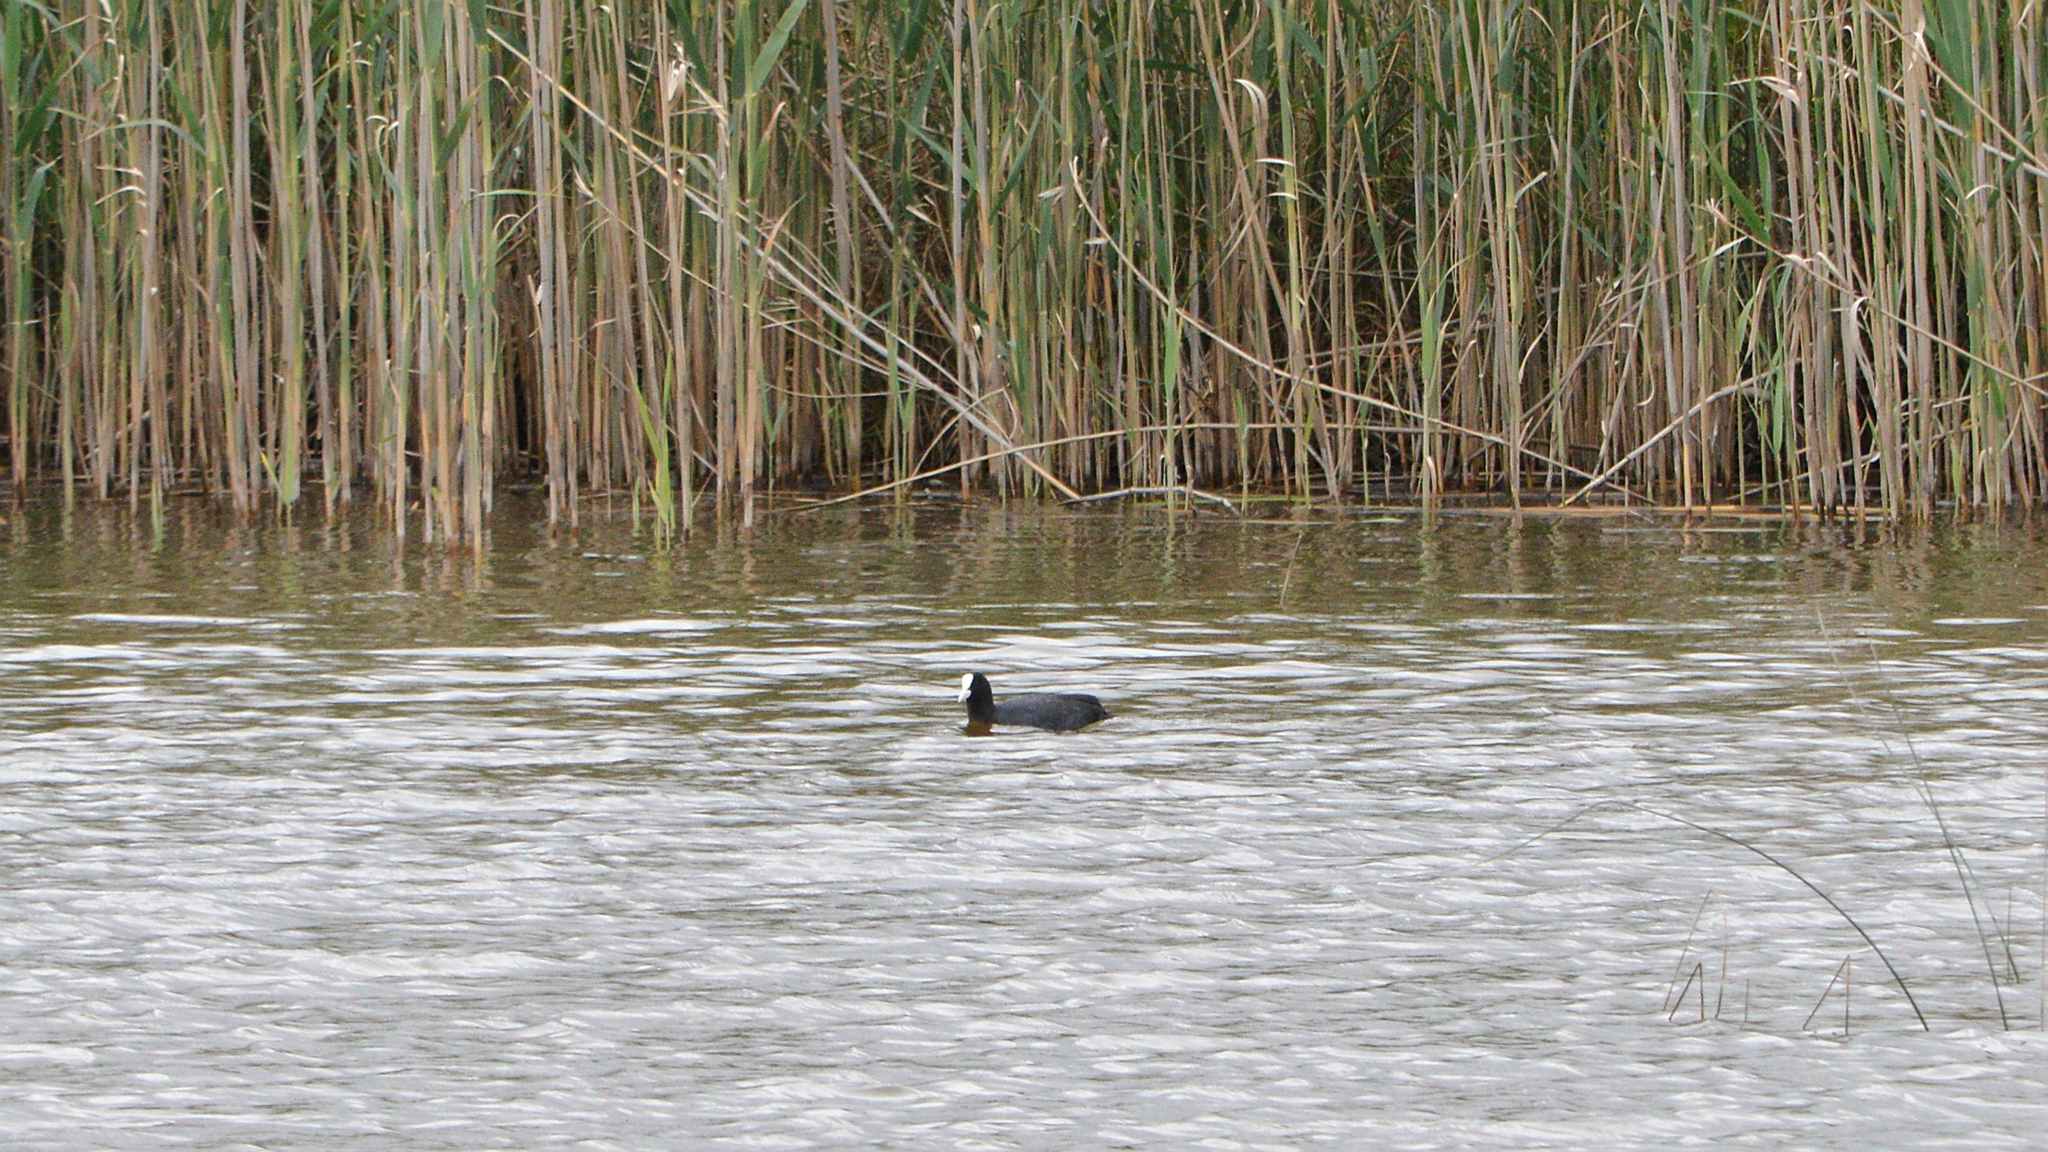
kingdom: Animalia
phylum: Chordata
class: Aves
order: Gruiformes
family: Rallidae
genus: Fulica
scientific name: Fulica atra
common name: Eurasian coot
